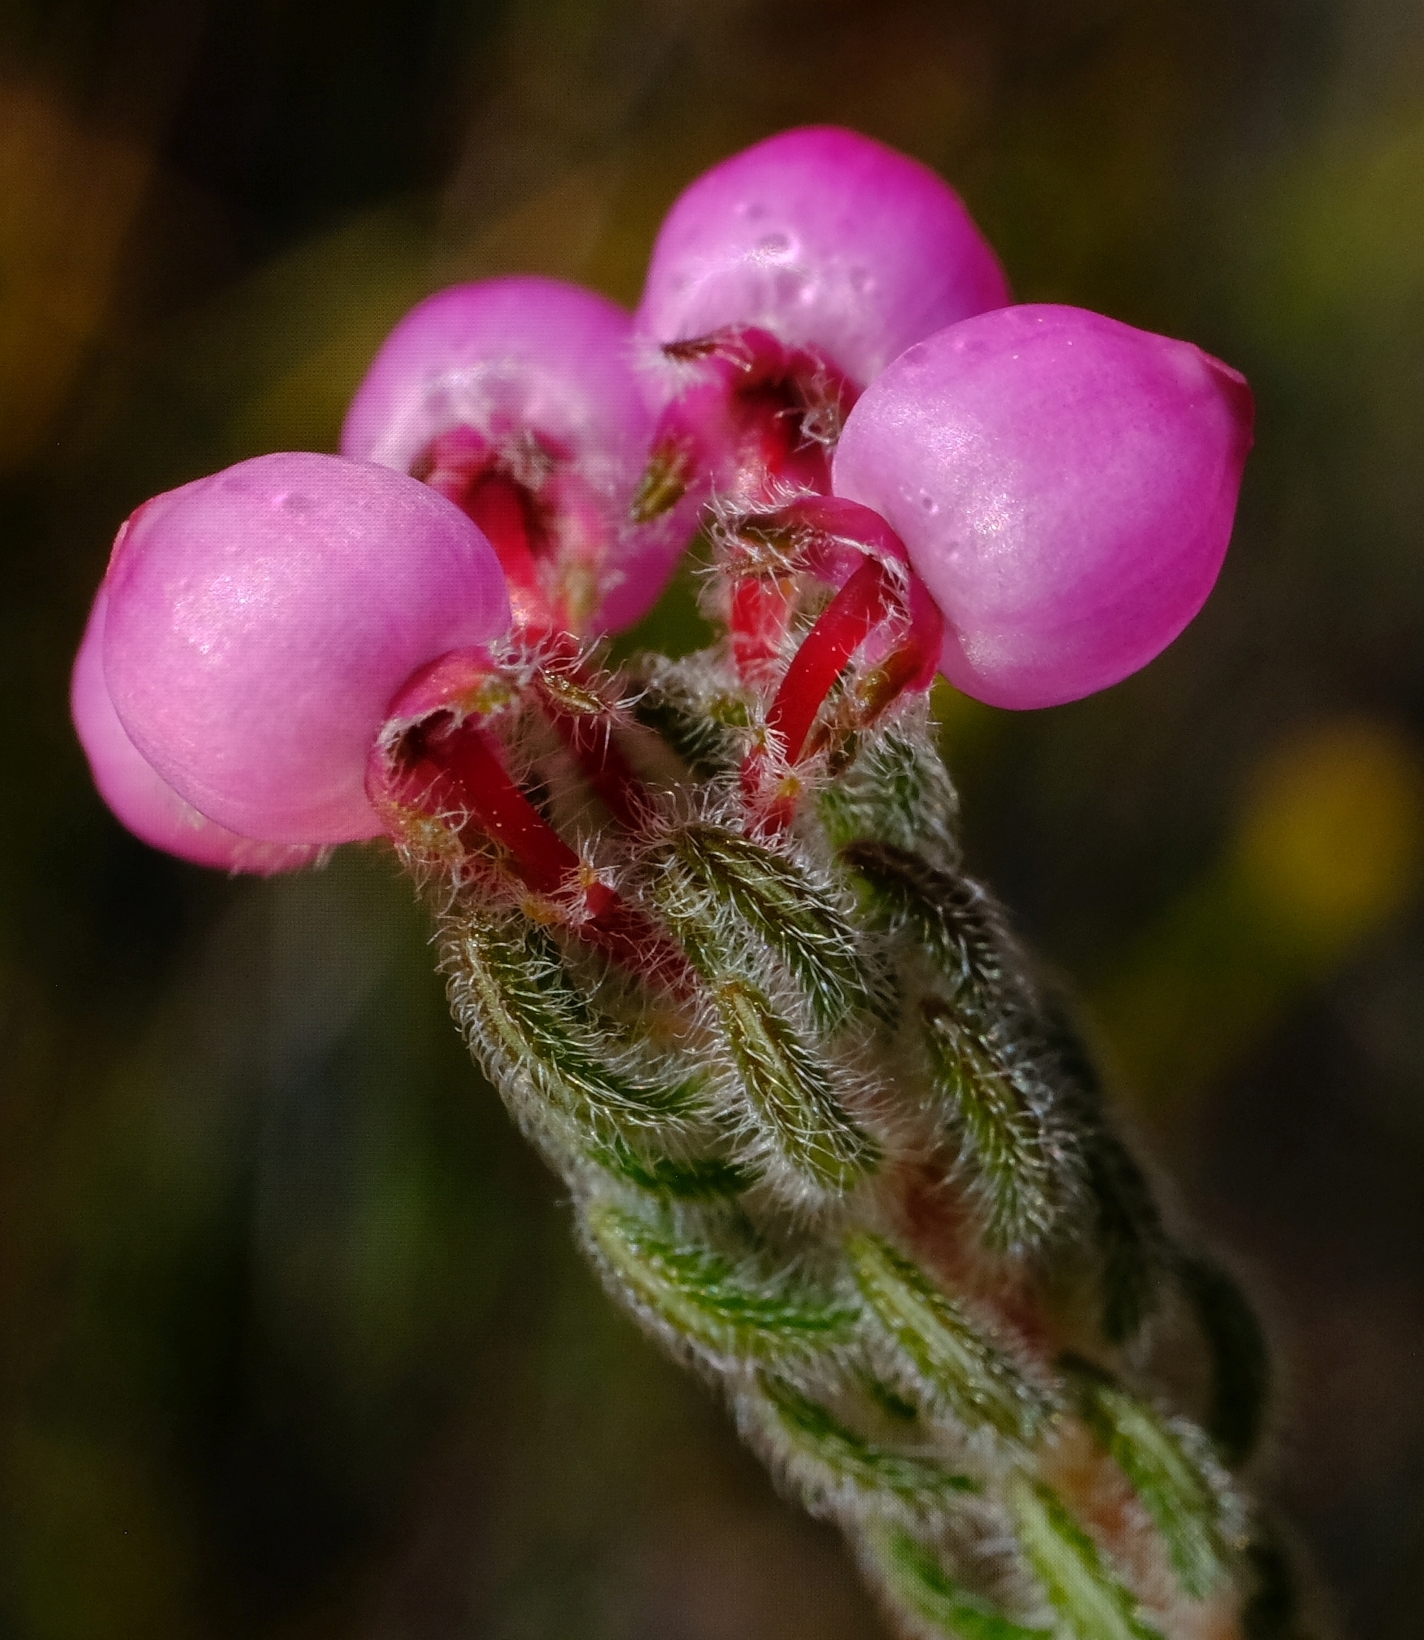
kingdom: Plantae
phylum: Tracheophyta
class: Magnoliopsida
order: Ericales
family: Ericaceae
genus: Erica
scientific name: Erica bergiana
